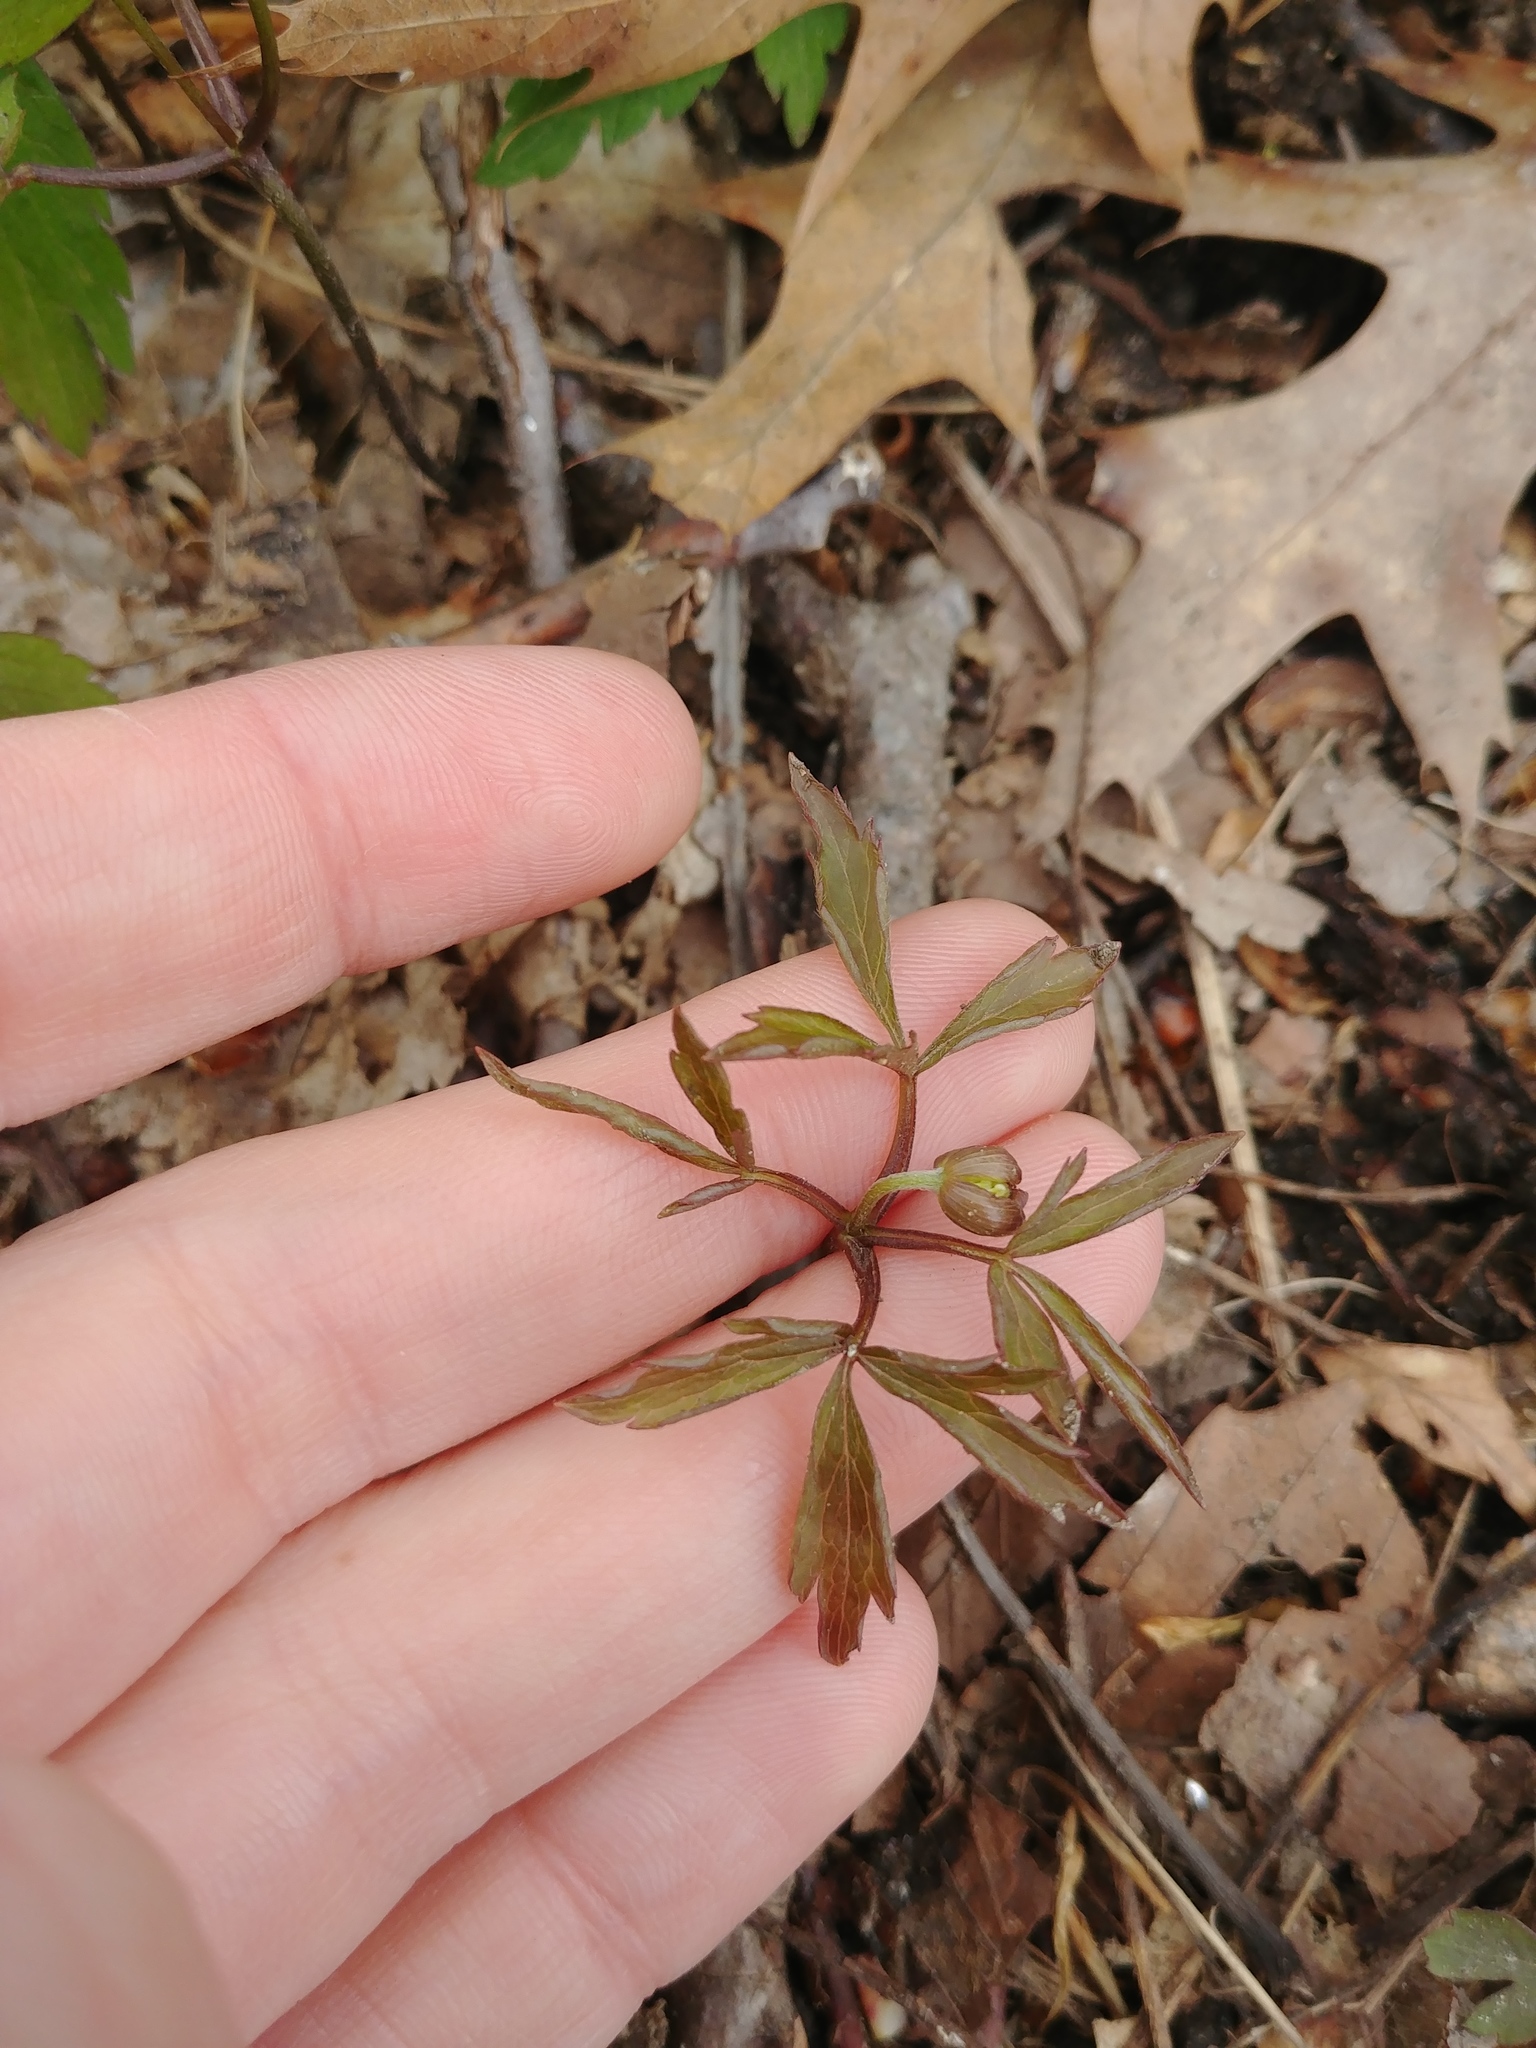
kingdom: Plantae
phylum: Tracheophyta
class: Magnoliopsida
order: Ranunculales
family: Ranunculaceae
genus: Anemone
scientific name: Anemone quinquefolia
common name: Wood anemone
